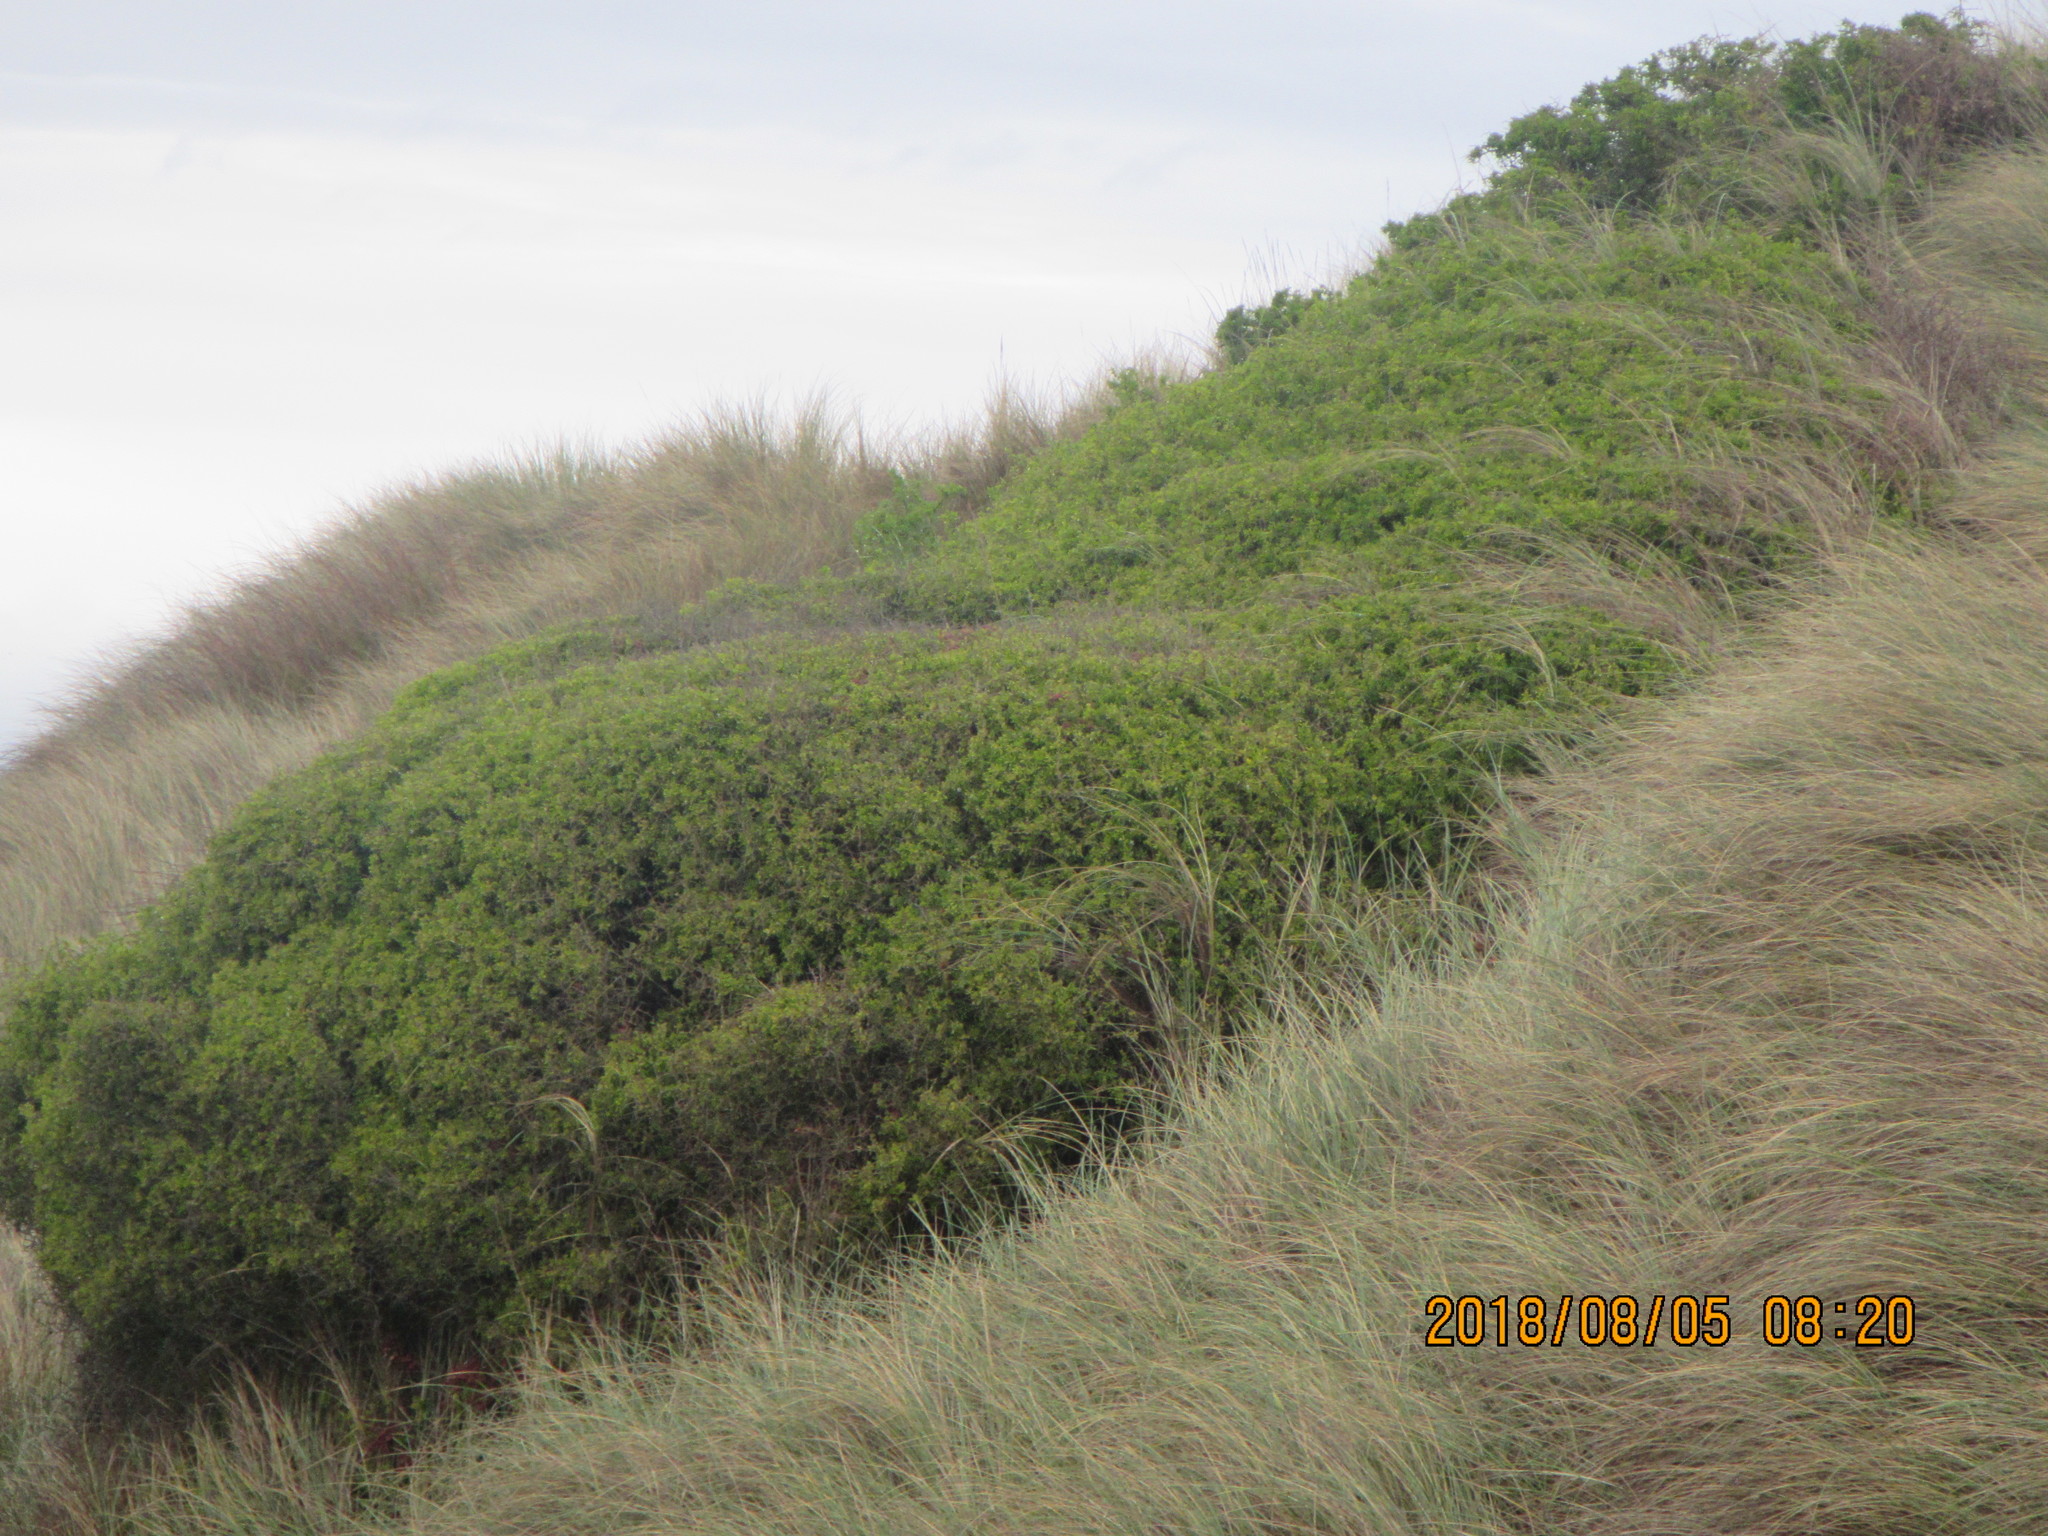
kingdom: Plantae
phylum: Tracheophyta
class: Magnoliopsida
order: Solanales
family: Solanaceae
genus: Lycium
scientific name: Lycium ferocissimum
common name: African boxthorn
